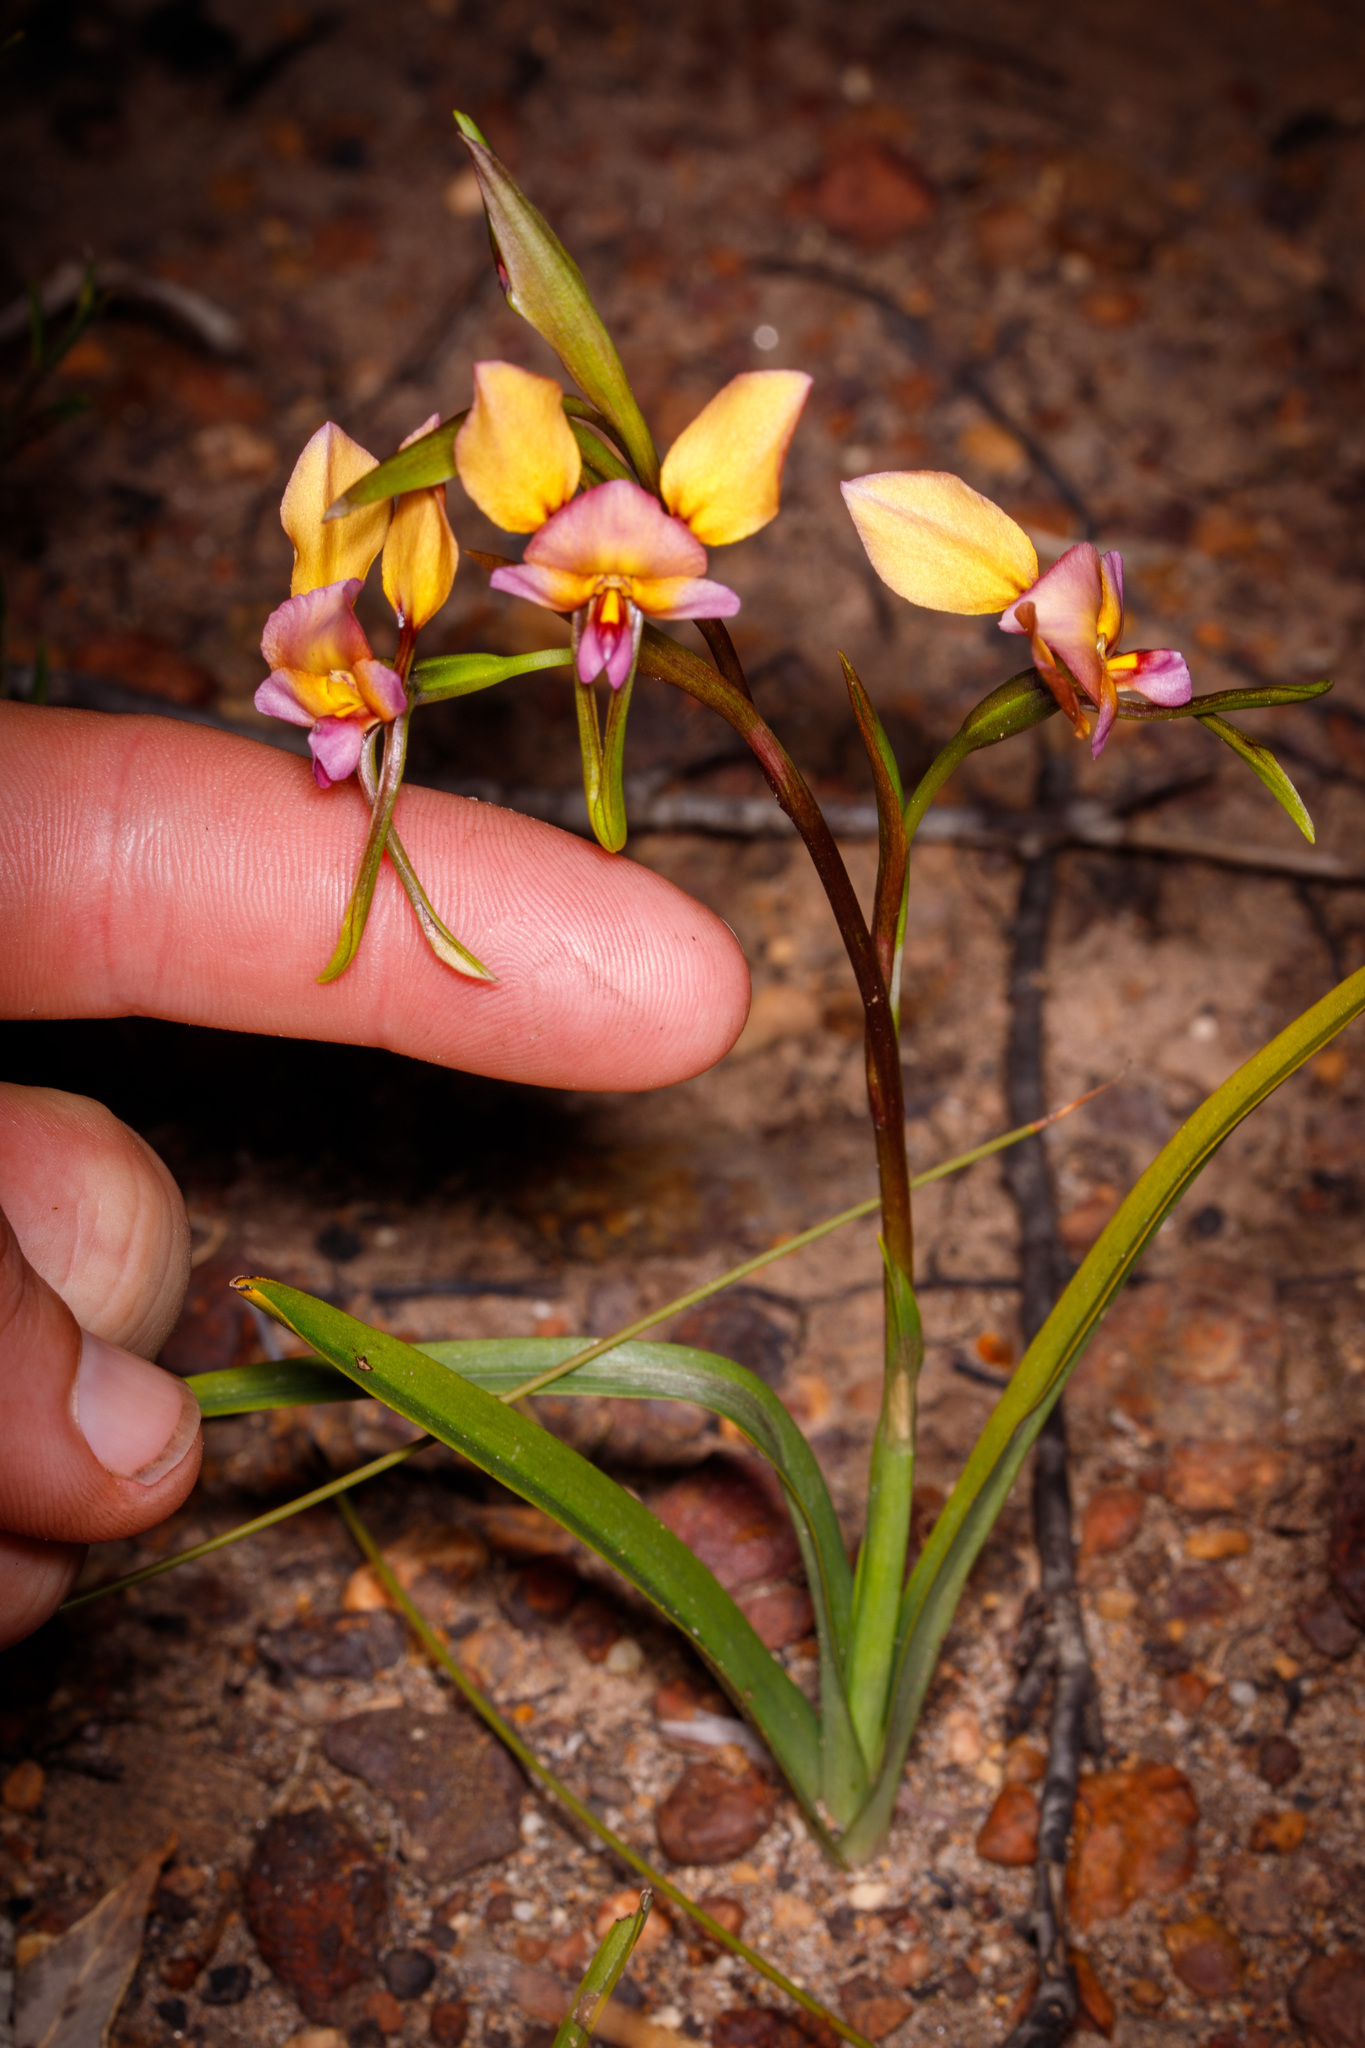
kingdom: Plantae
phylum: Tracheophyta
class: Liliopsida
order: Asparagales
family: Orchidaceae
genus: Diuris
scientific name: Diuris longifolia
